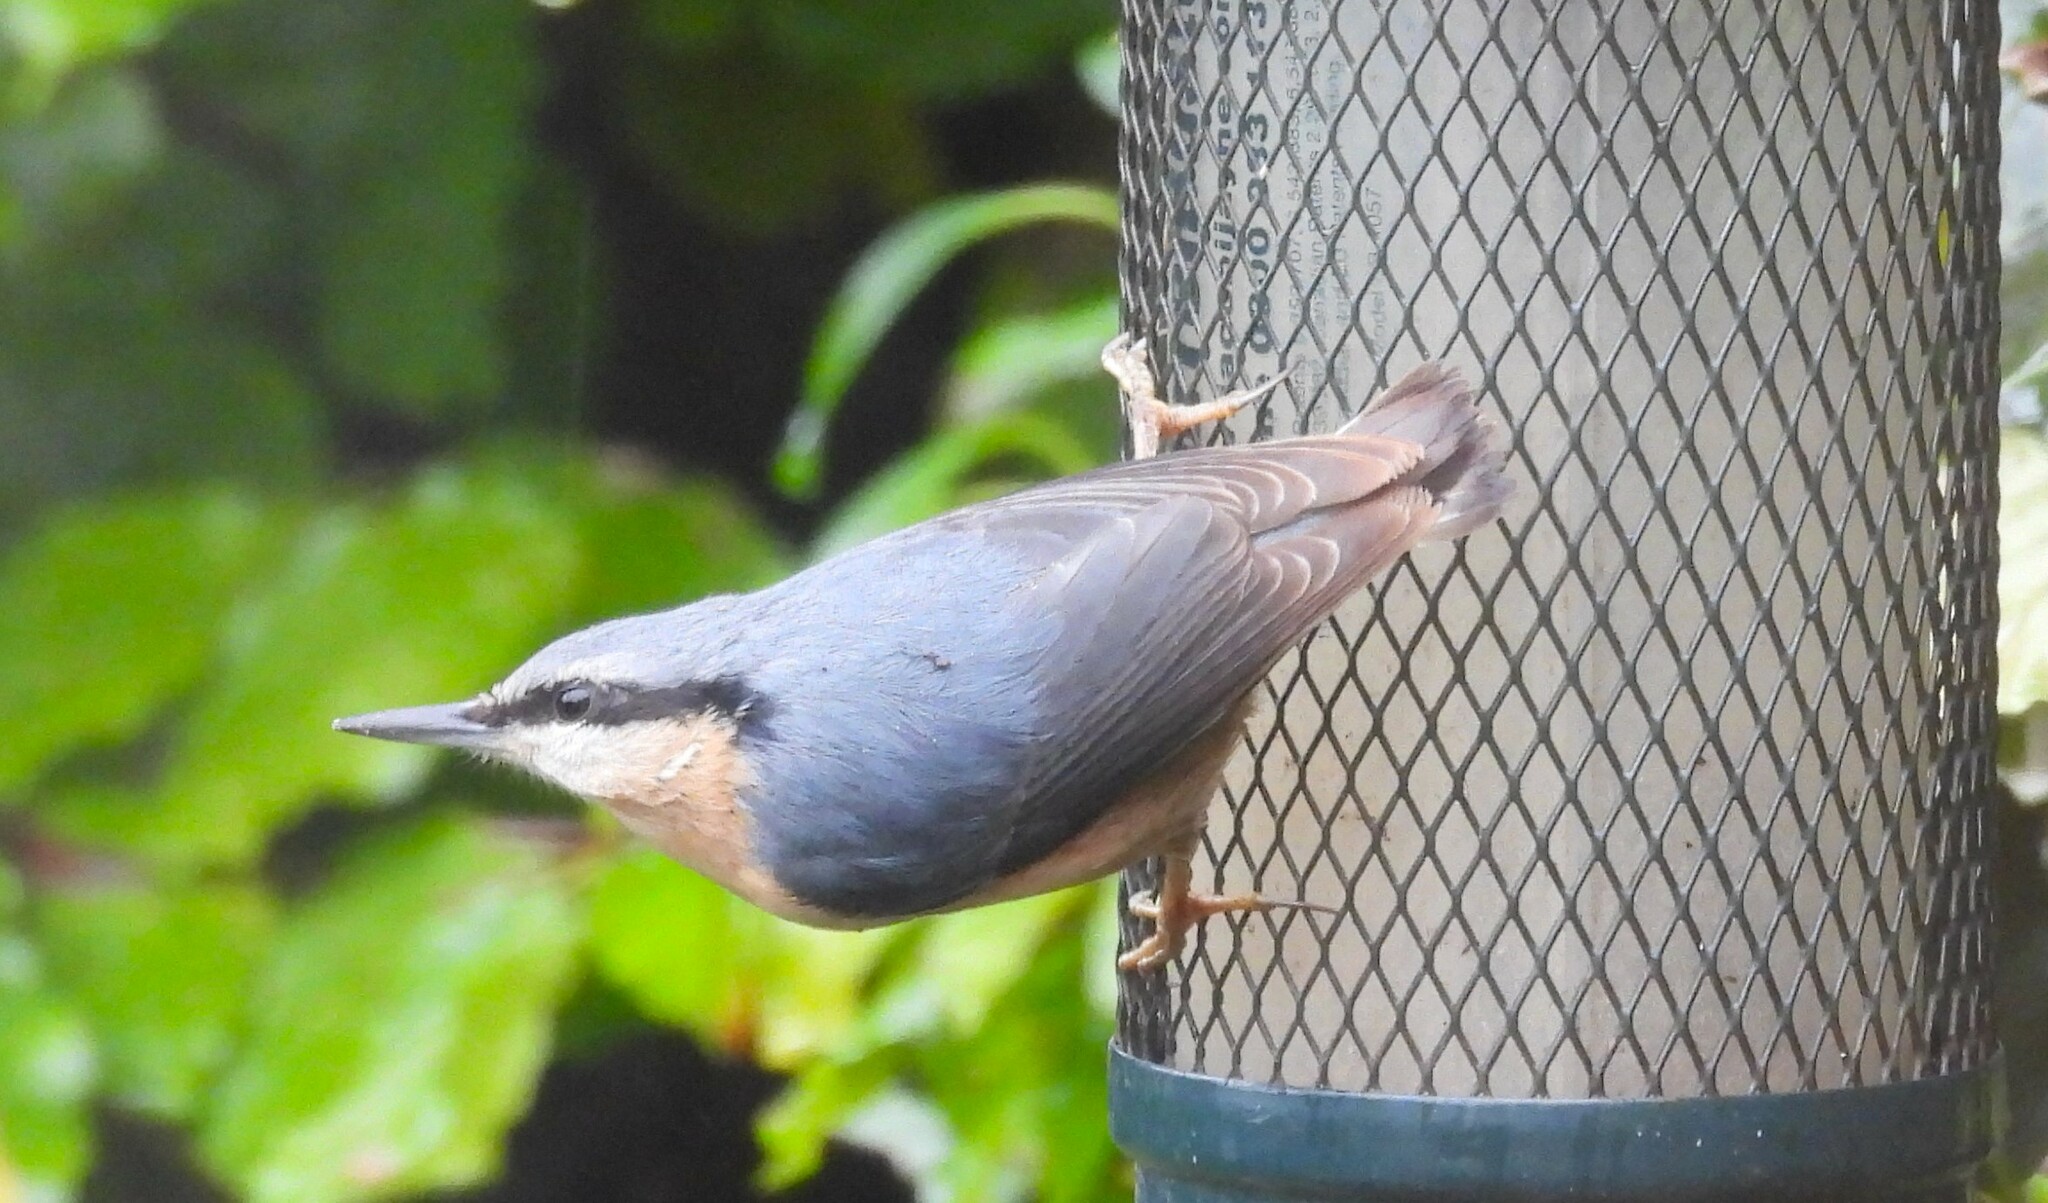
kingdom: Animalia
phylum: Chordata
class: Aves
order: Passeriformes
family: Sittidae
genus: Sitta
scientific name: Sitta europaea
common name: Eurasian nuthatch
